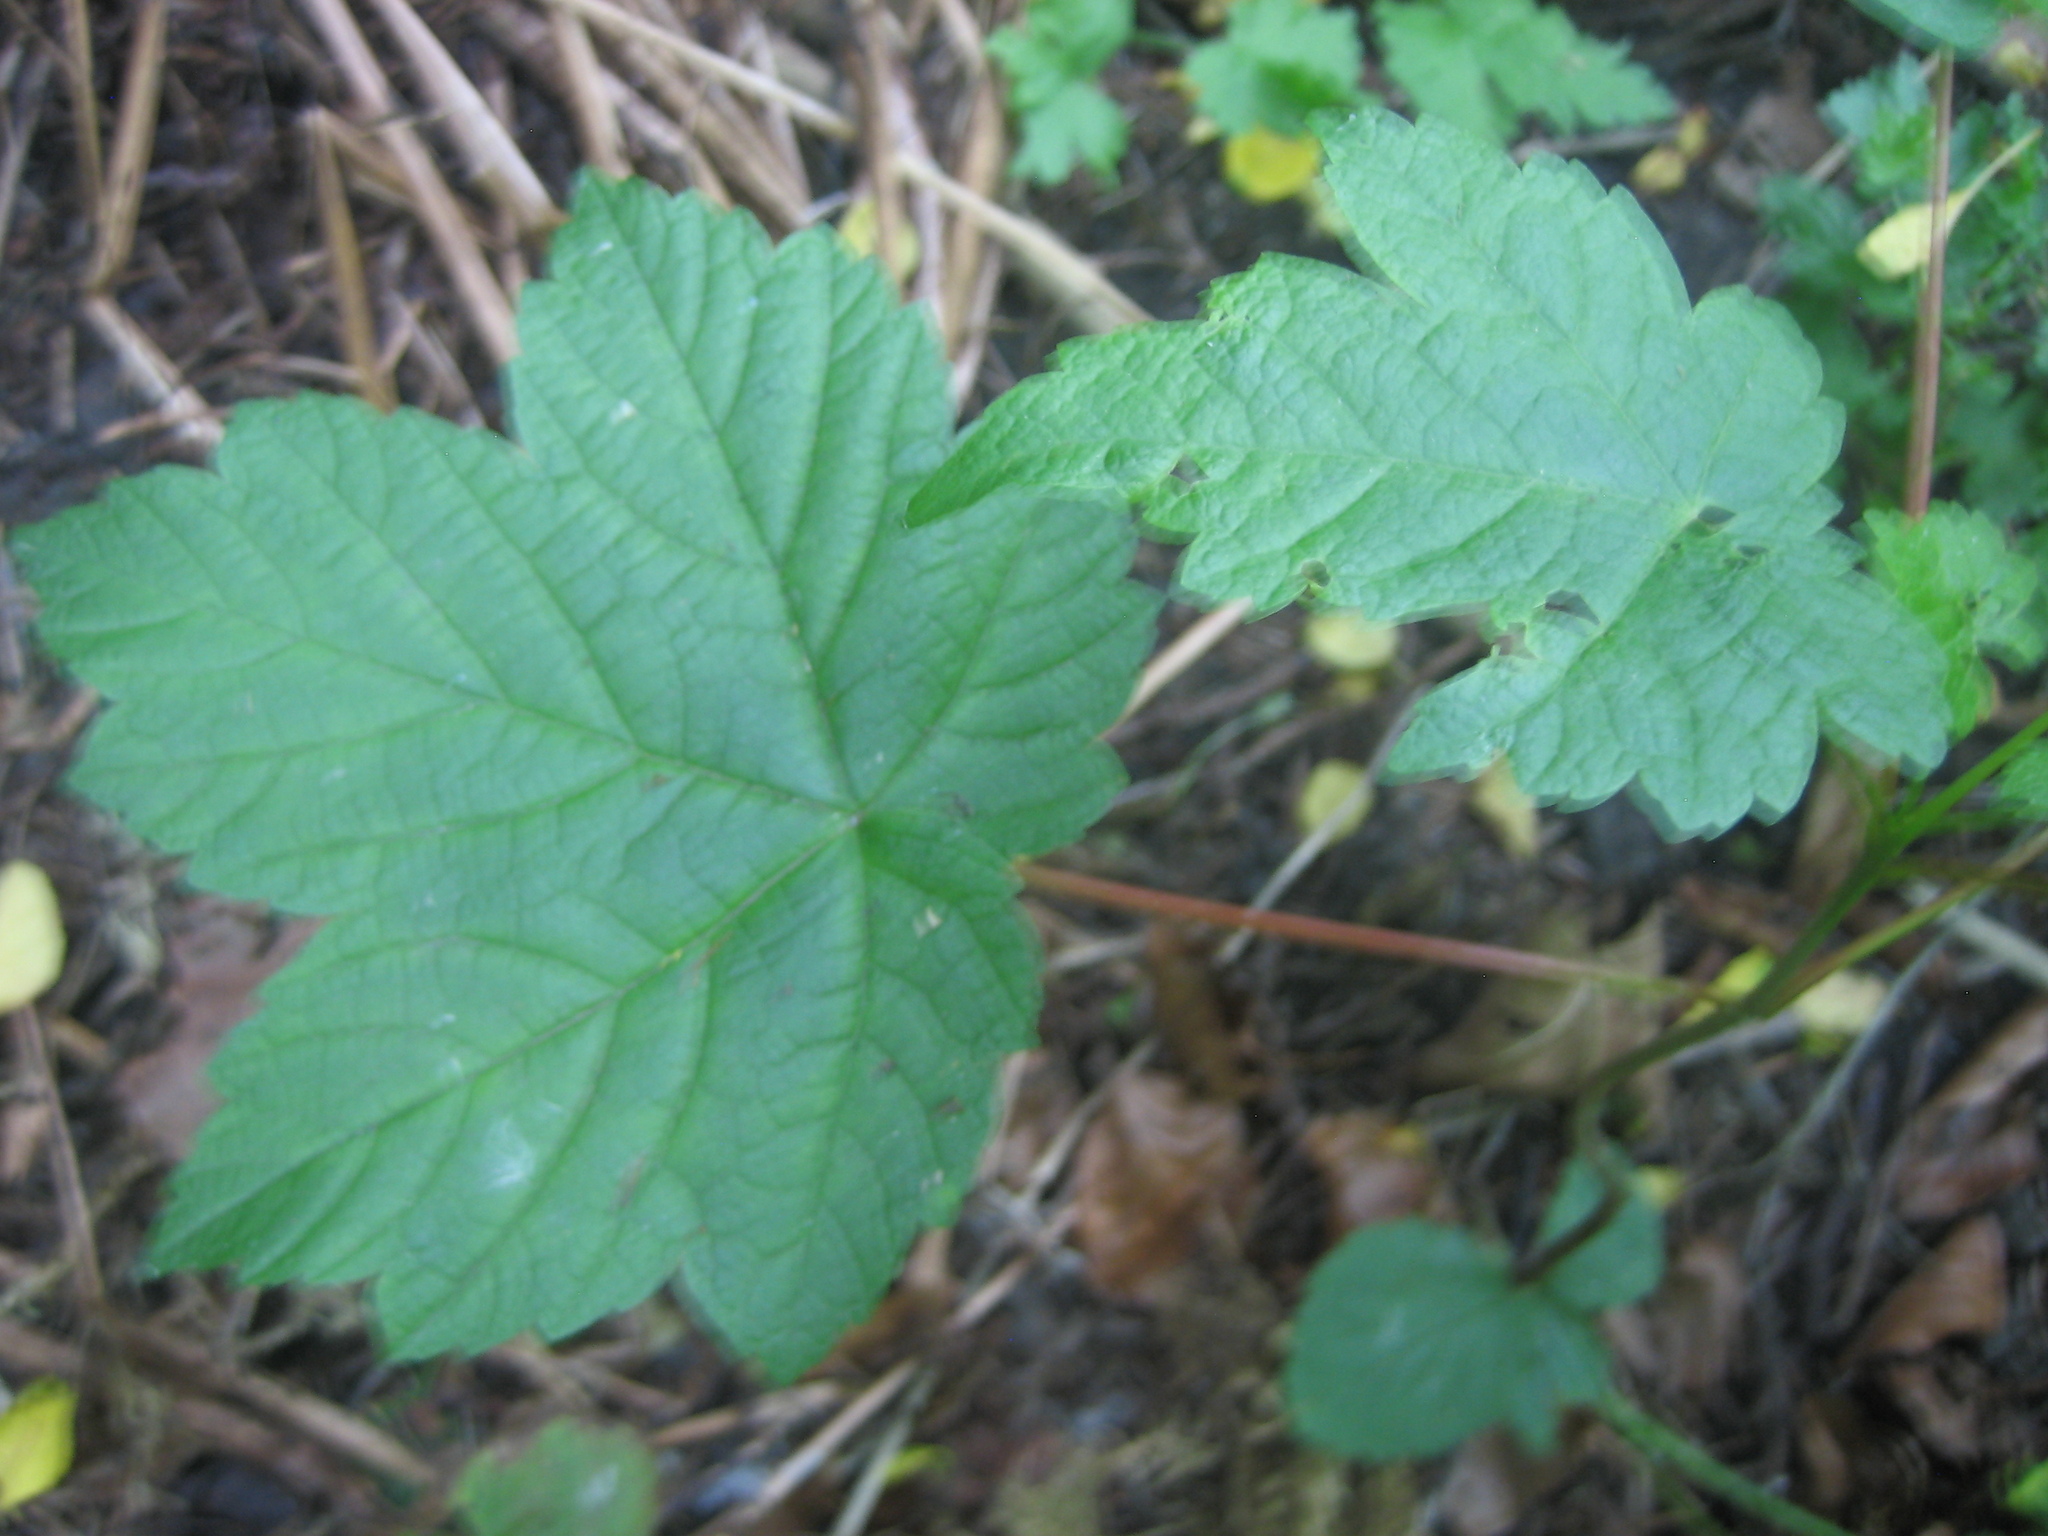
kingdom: Plantae
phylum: Tracheophyta
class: Magnoliopsida
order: Sapindales
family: Sapindaceae
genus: Acer
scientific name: Acer pseudoplatanus
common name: Sycamore
